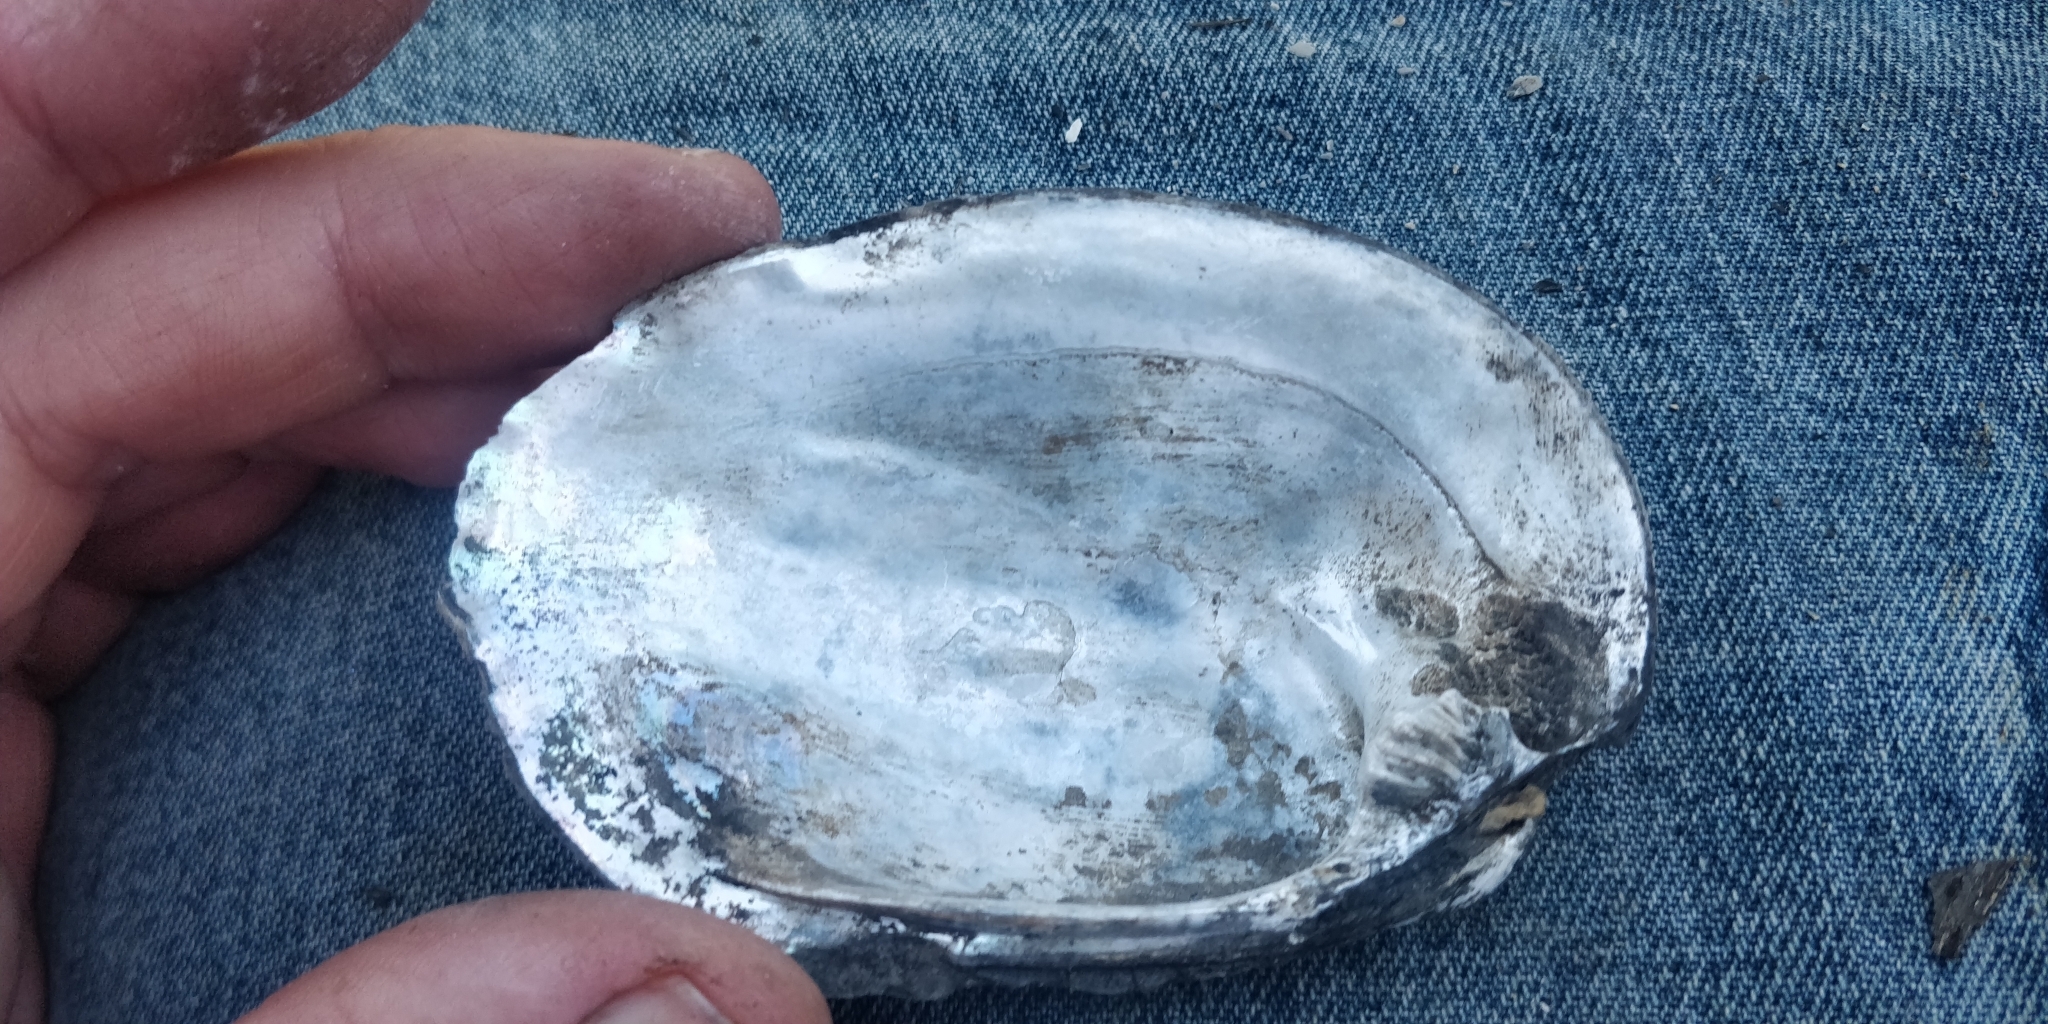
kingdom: Animalia
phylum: Mollusca
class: Bivalvia
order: Unionida
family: Unionidae
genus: Amblema
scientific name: Amblema plicata
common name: Threeridge
